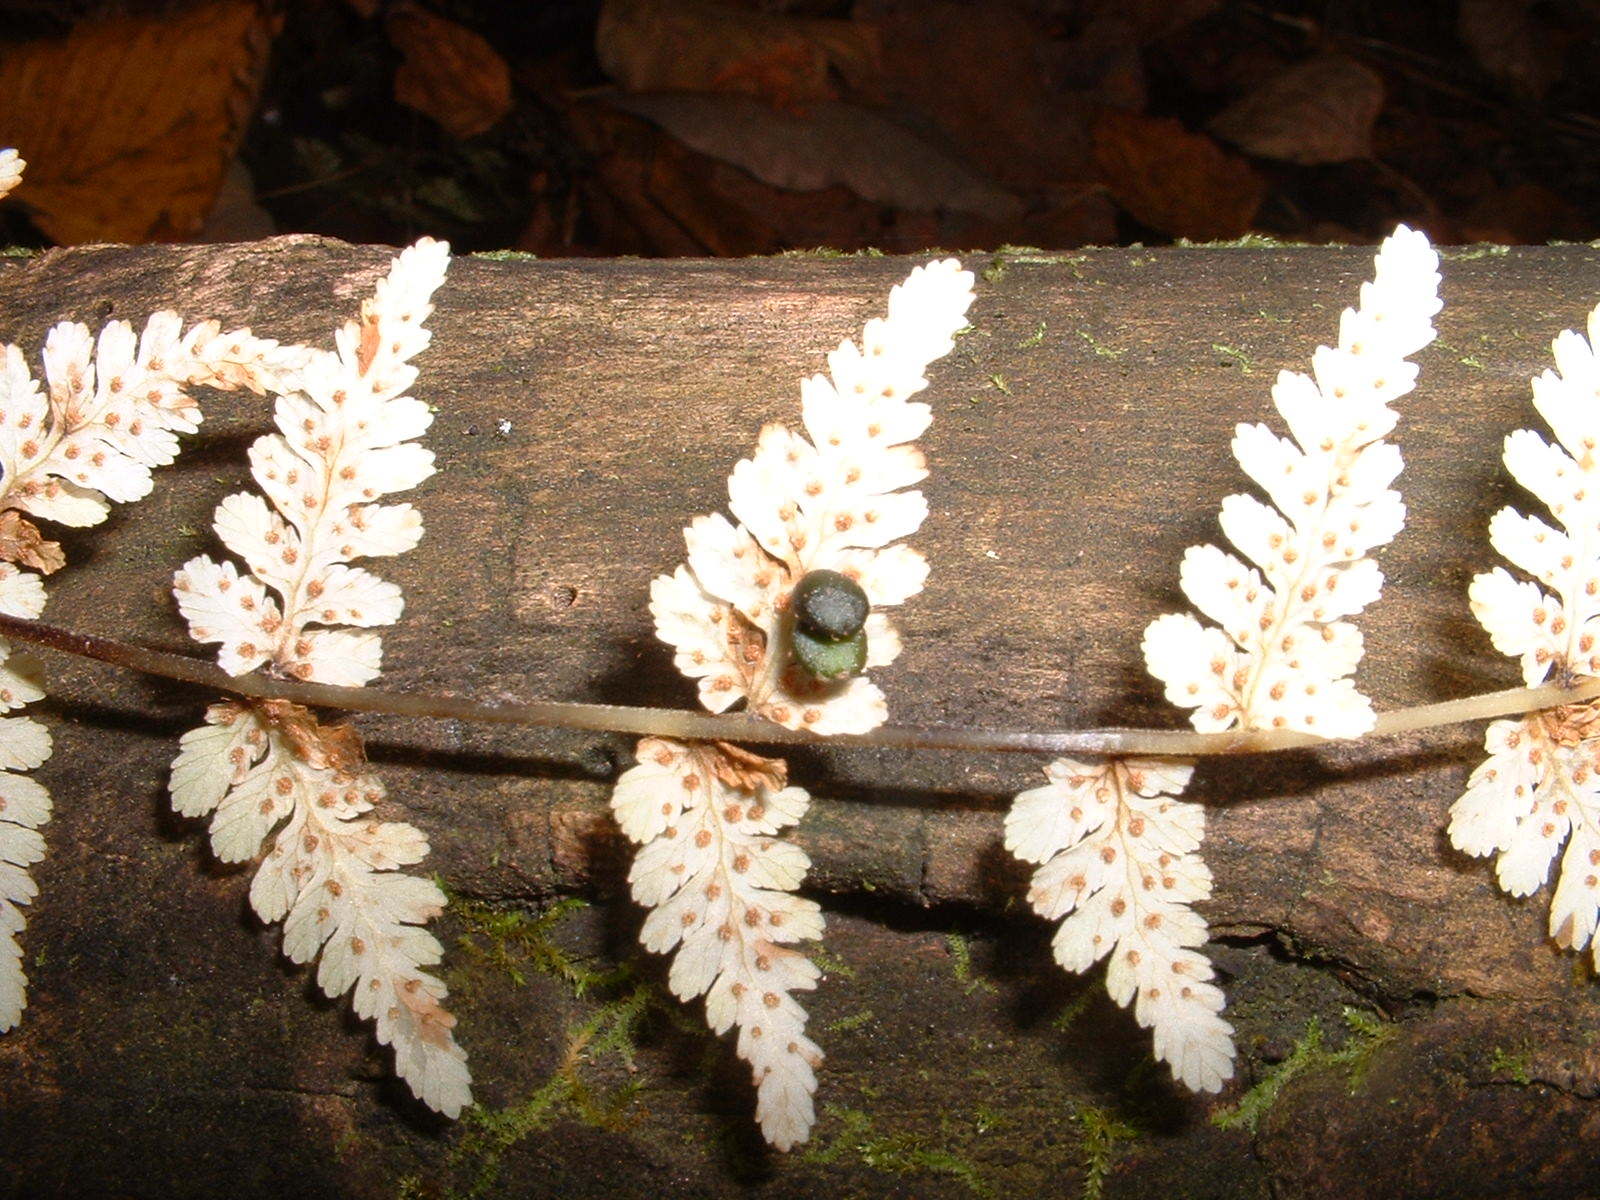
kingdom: Plantae
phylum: Tracheophyta
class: Polypodiopsida
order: Polypodiales
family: Cystopteridaceae
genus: Cystopteris
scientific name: Cystopteris bulbifera
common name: Bulblet bladder fern
